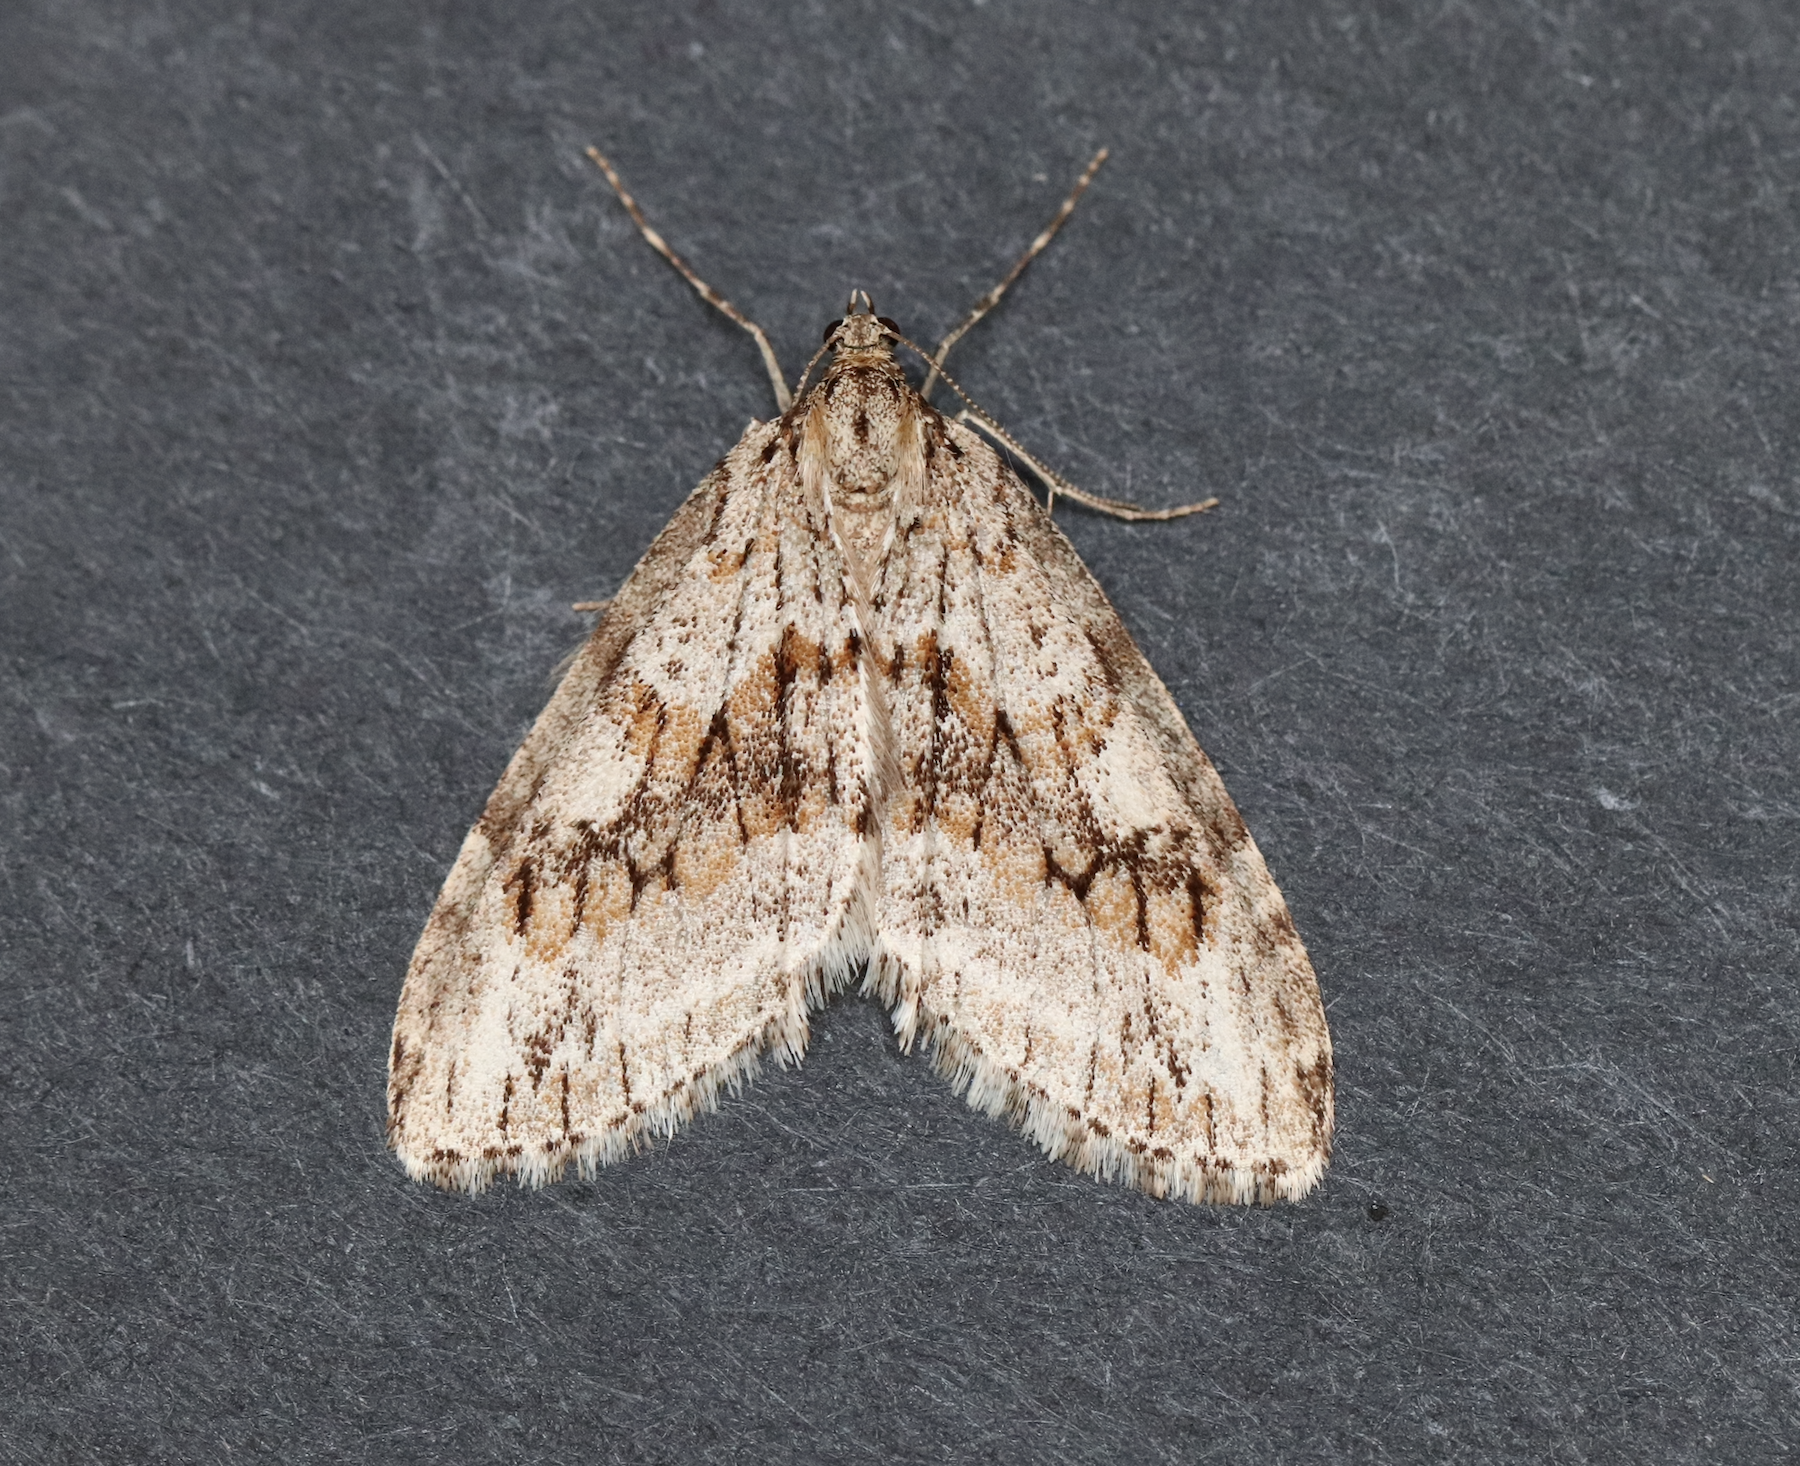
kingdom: Animalia
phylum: Arthropoda
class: Insecta
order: Lepidoptera
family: Geometridae
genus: Trichopteryx
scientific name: Trichopteryx polycommata
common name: Barred tooth-striped
